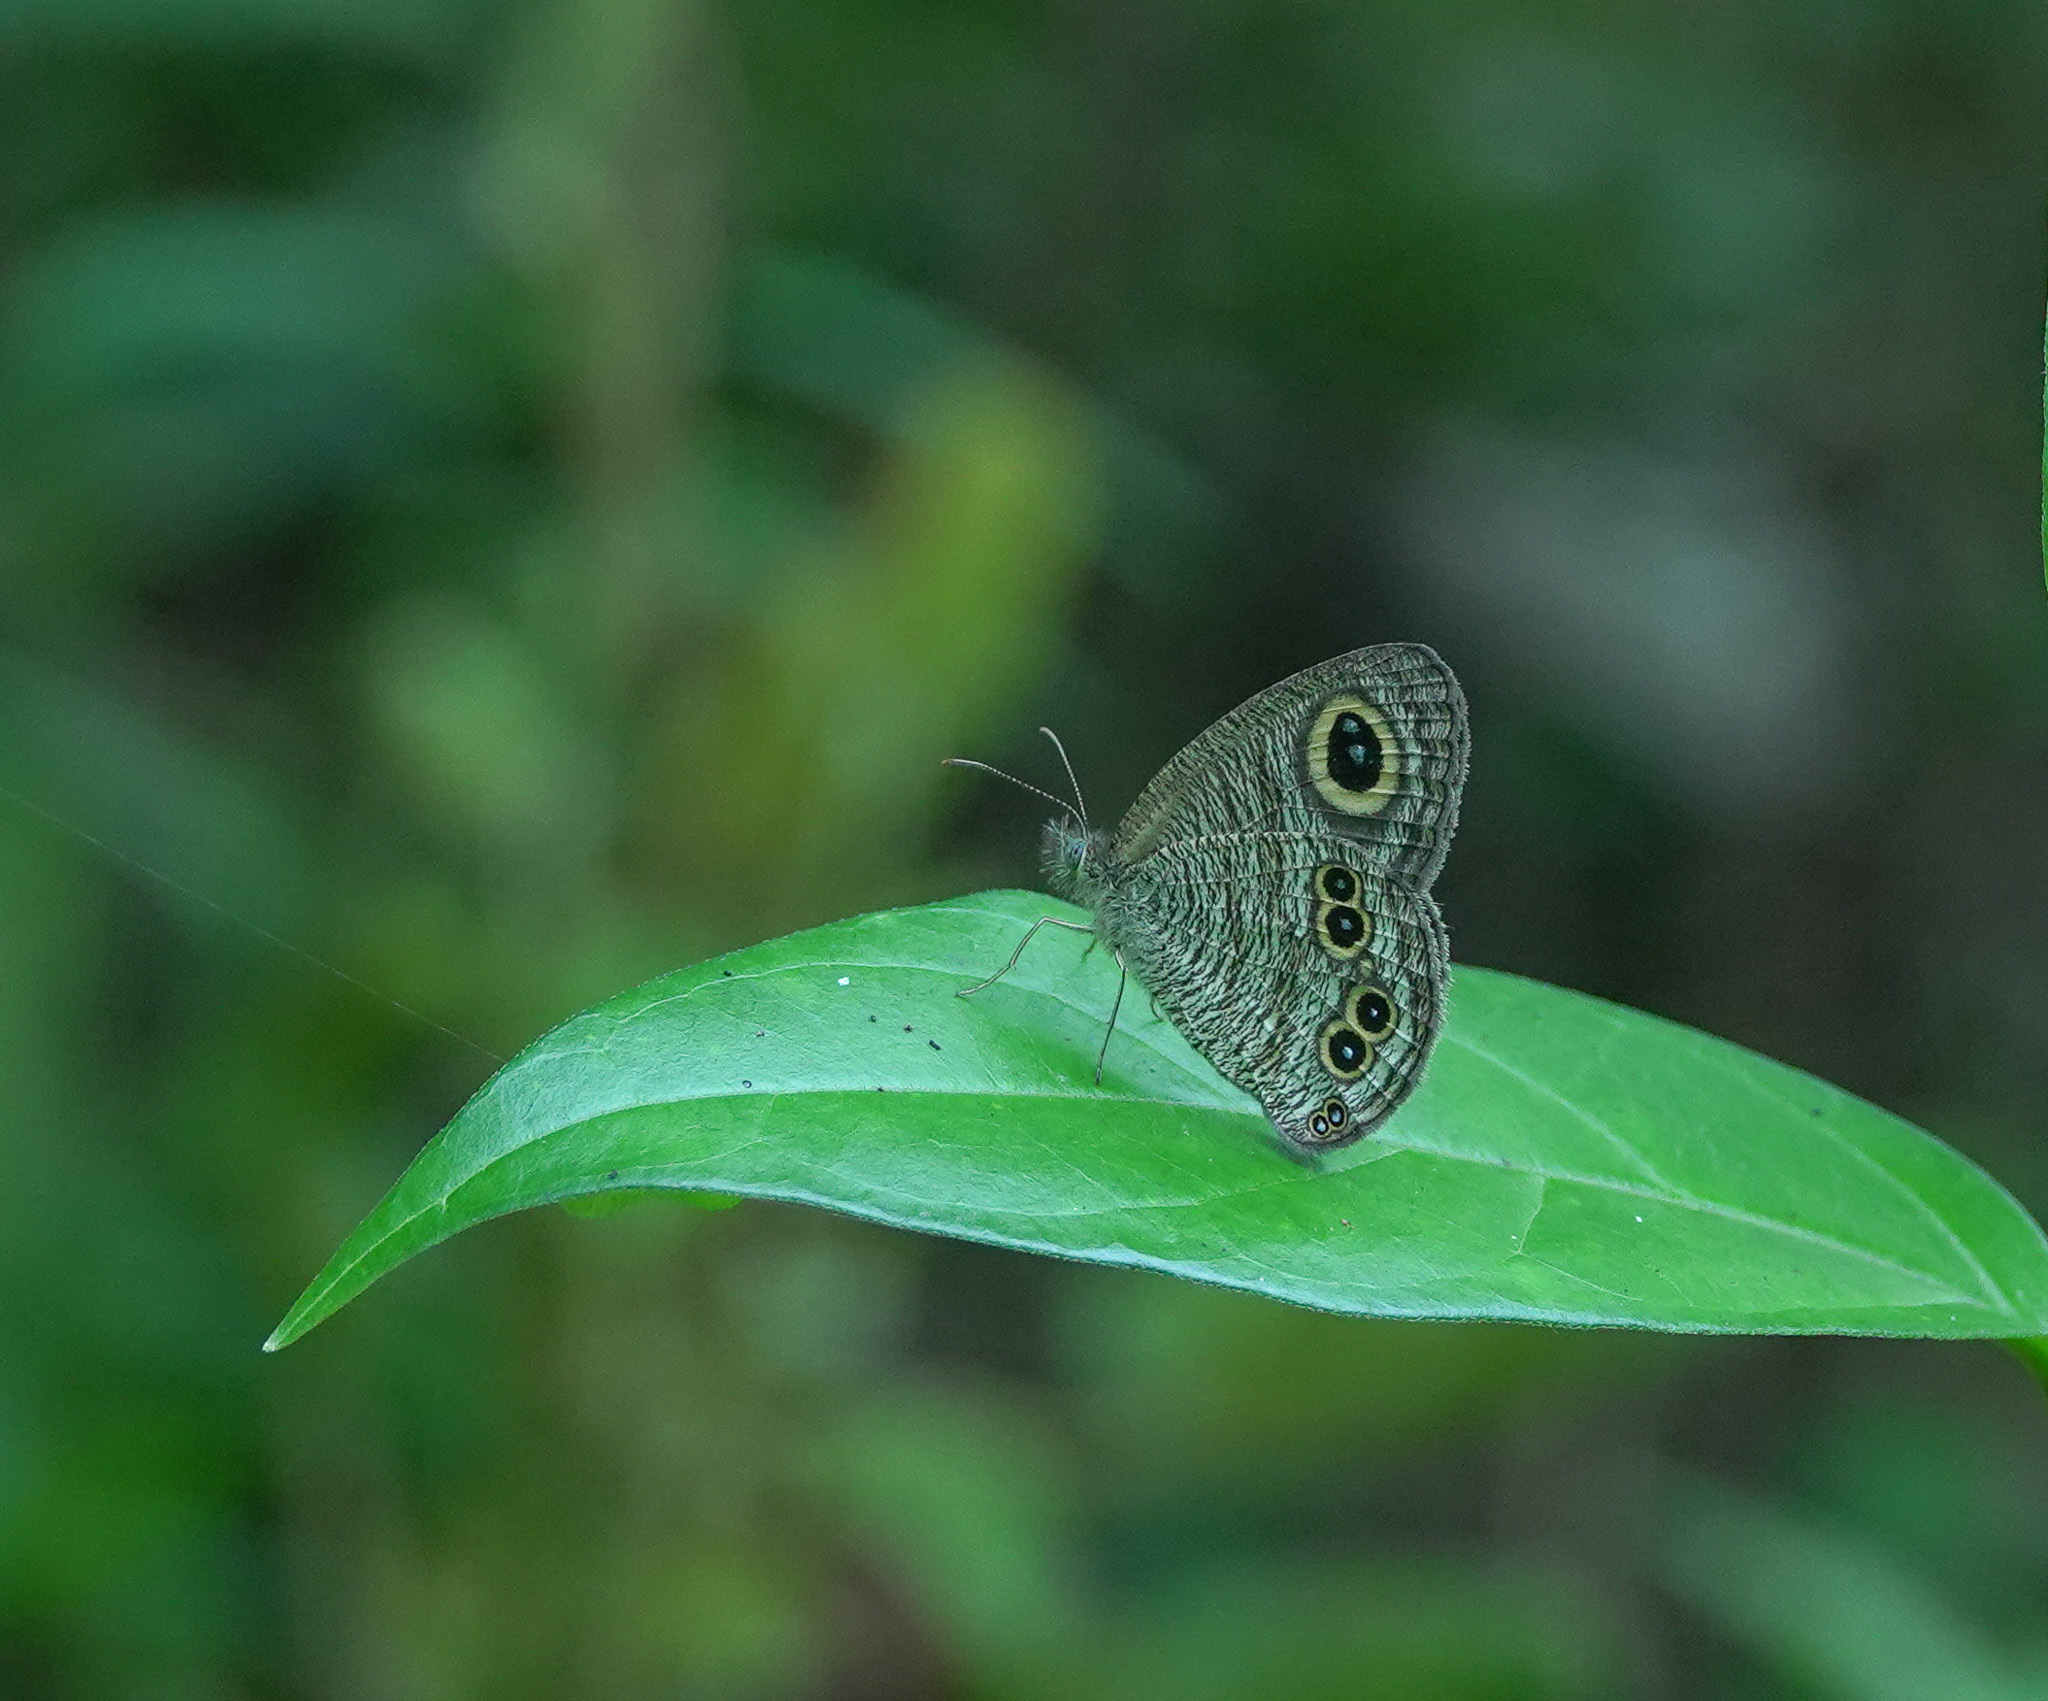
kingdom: Animalia
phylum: Arthropoda
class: Insecta
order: Lepidoptera
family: Nymphalidae
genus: Ypthima
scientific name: Ypthima baldus
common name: Common five-ring
